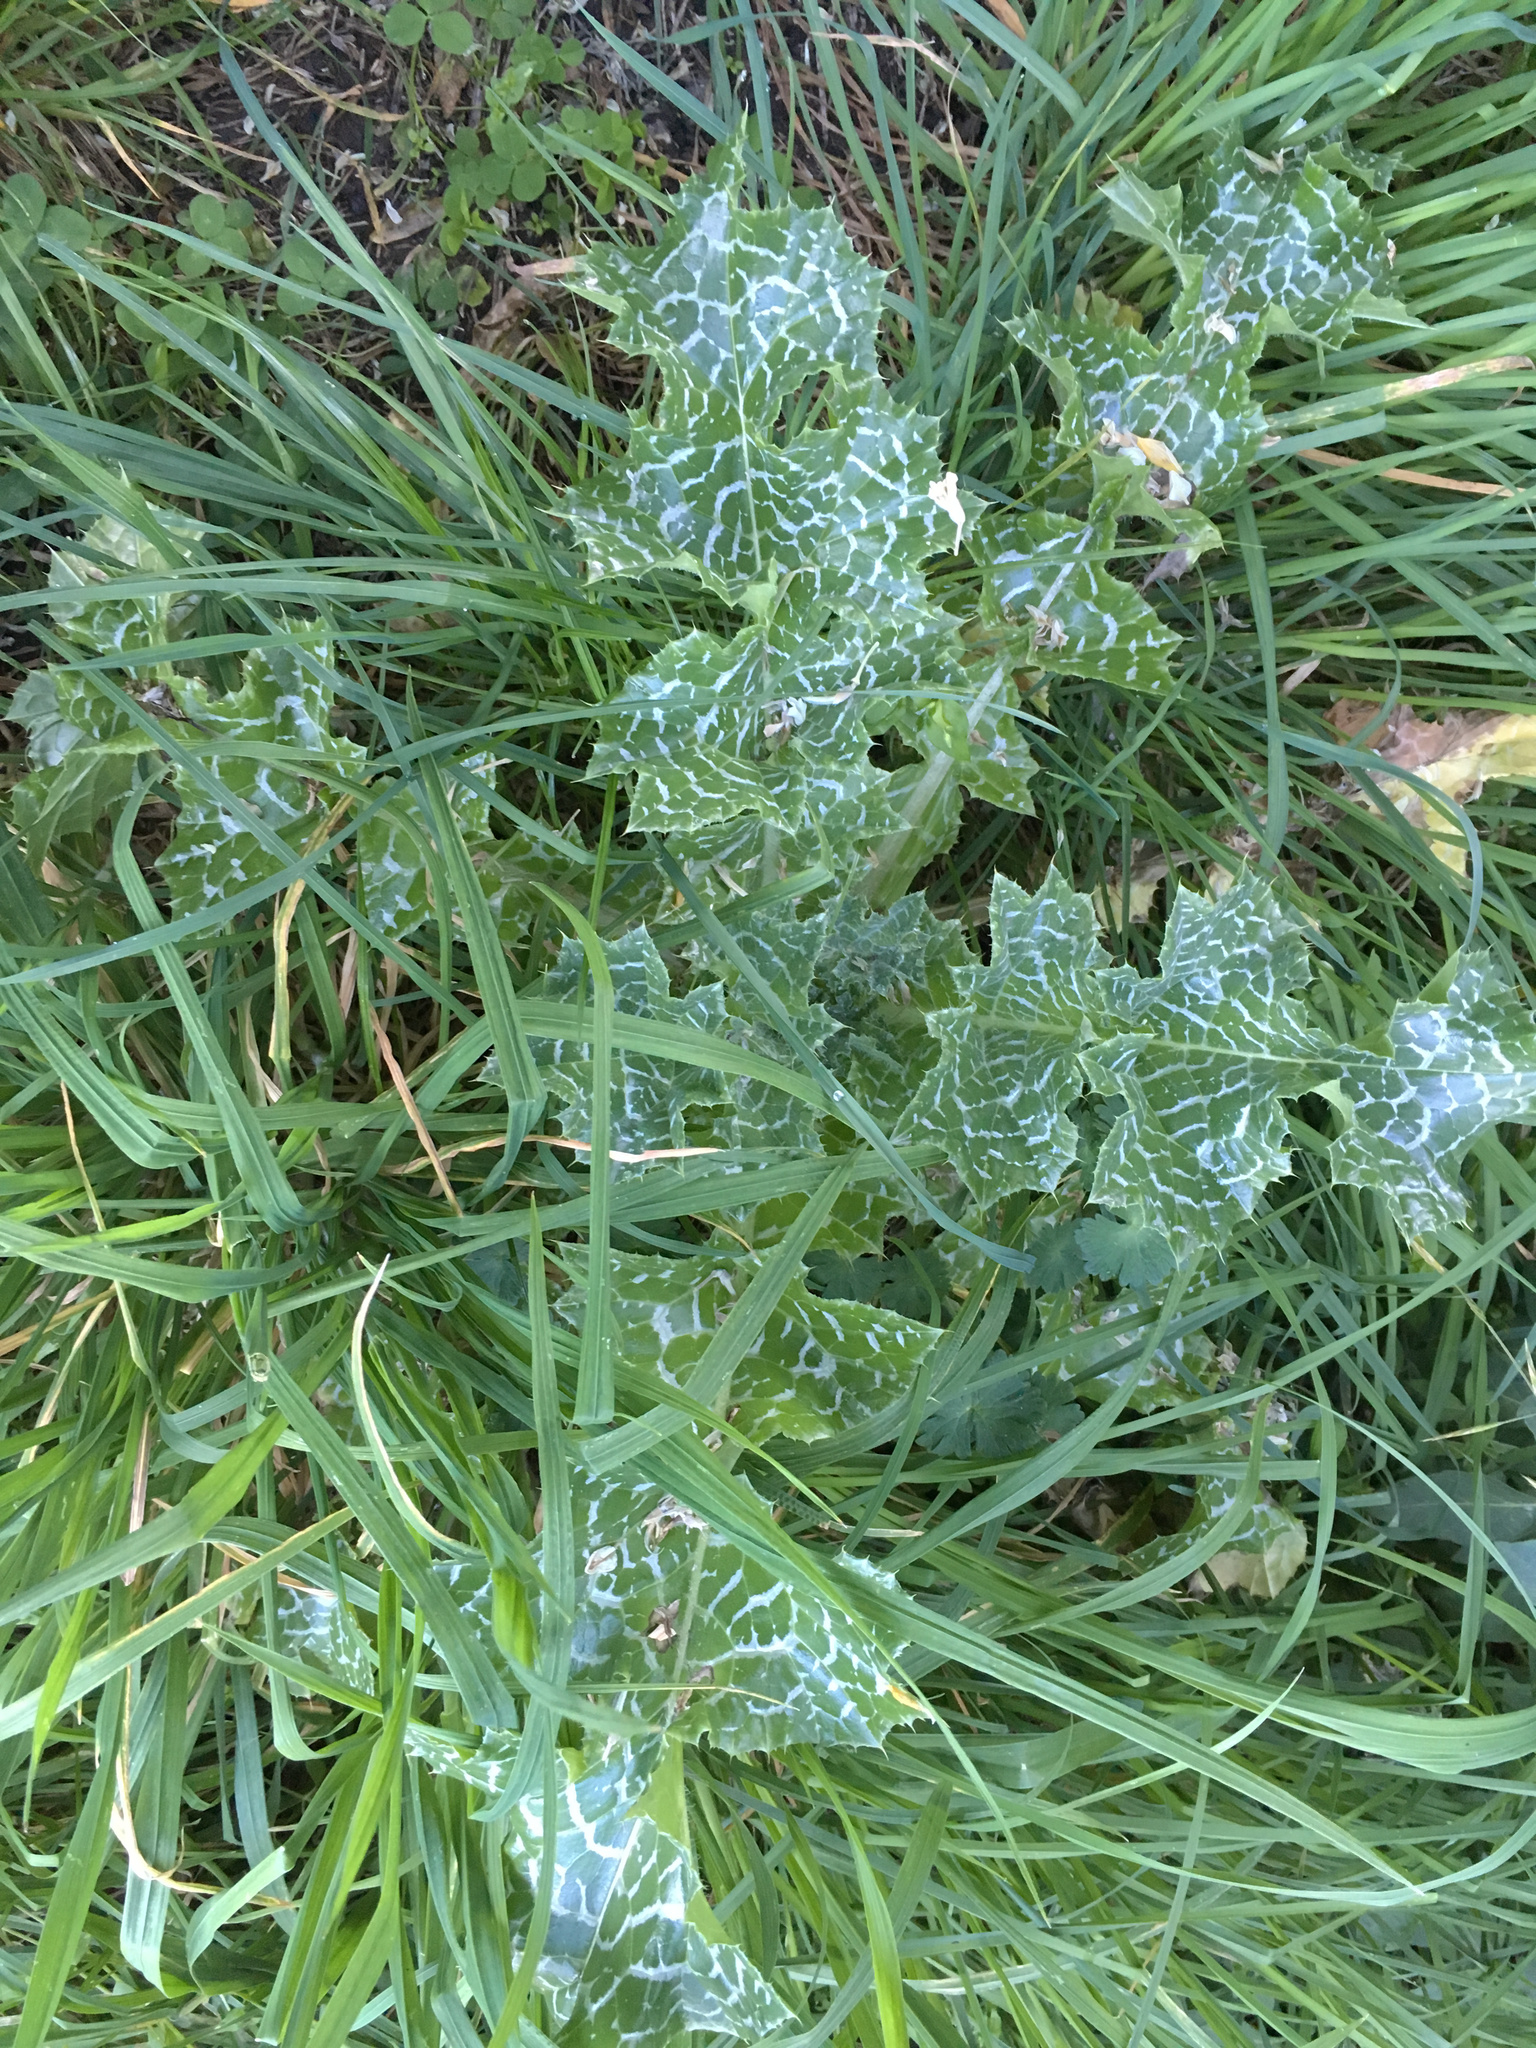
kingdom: Plantae
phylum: Tracheophyta
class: Magnoliopsida
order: Asterales
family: Asteraceae
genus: Silybum
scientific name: Silybum marianum
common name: Milk thistle
